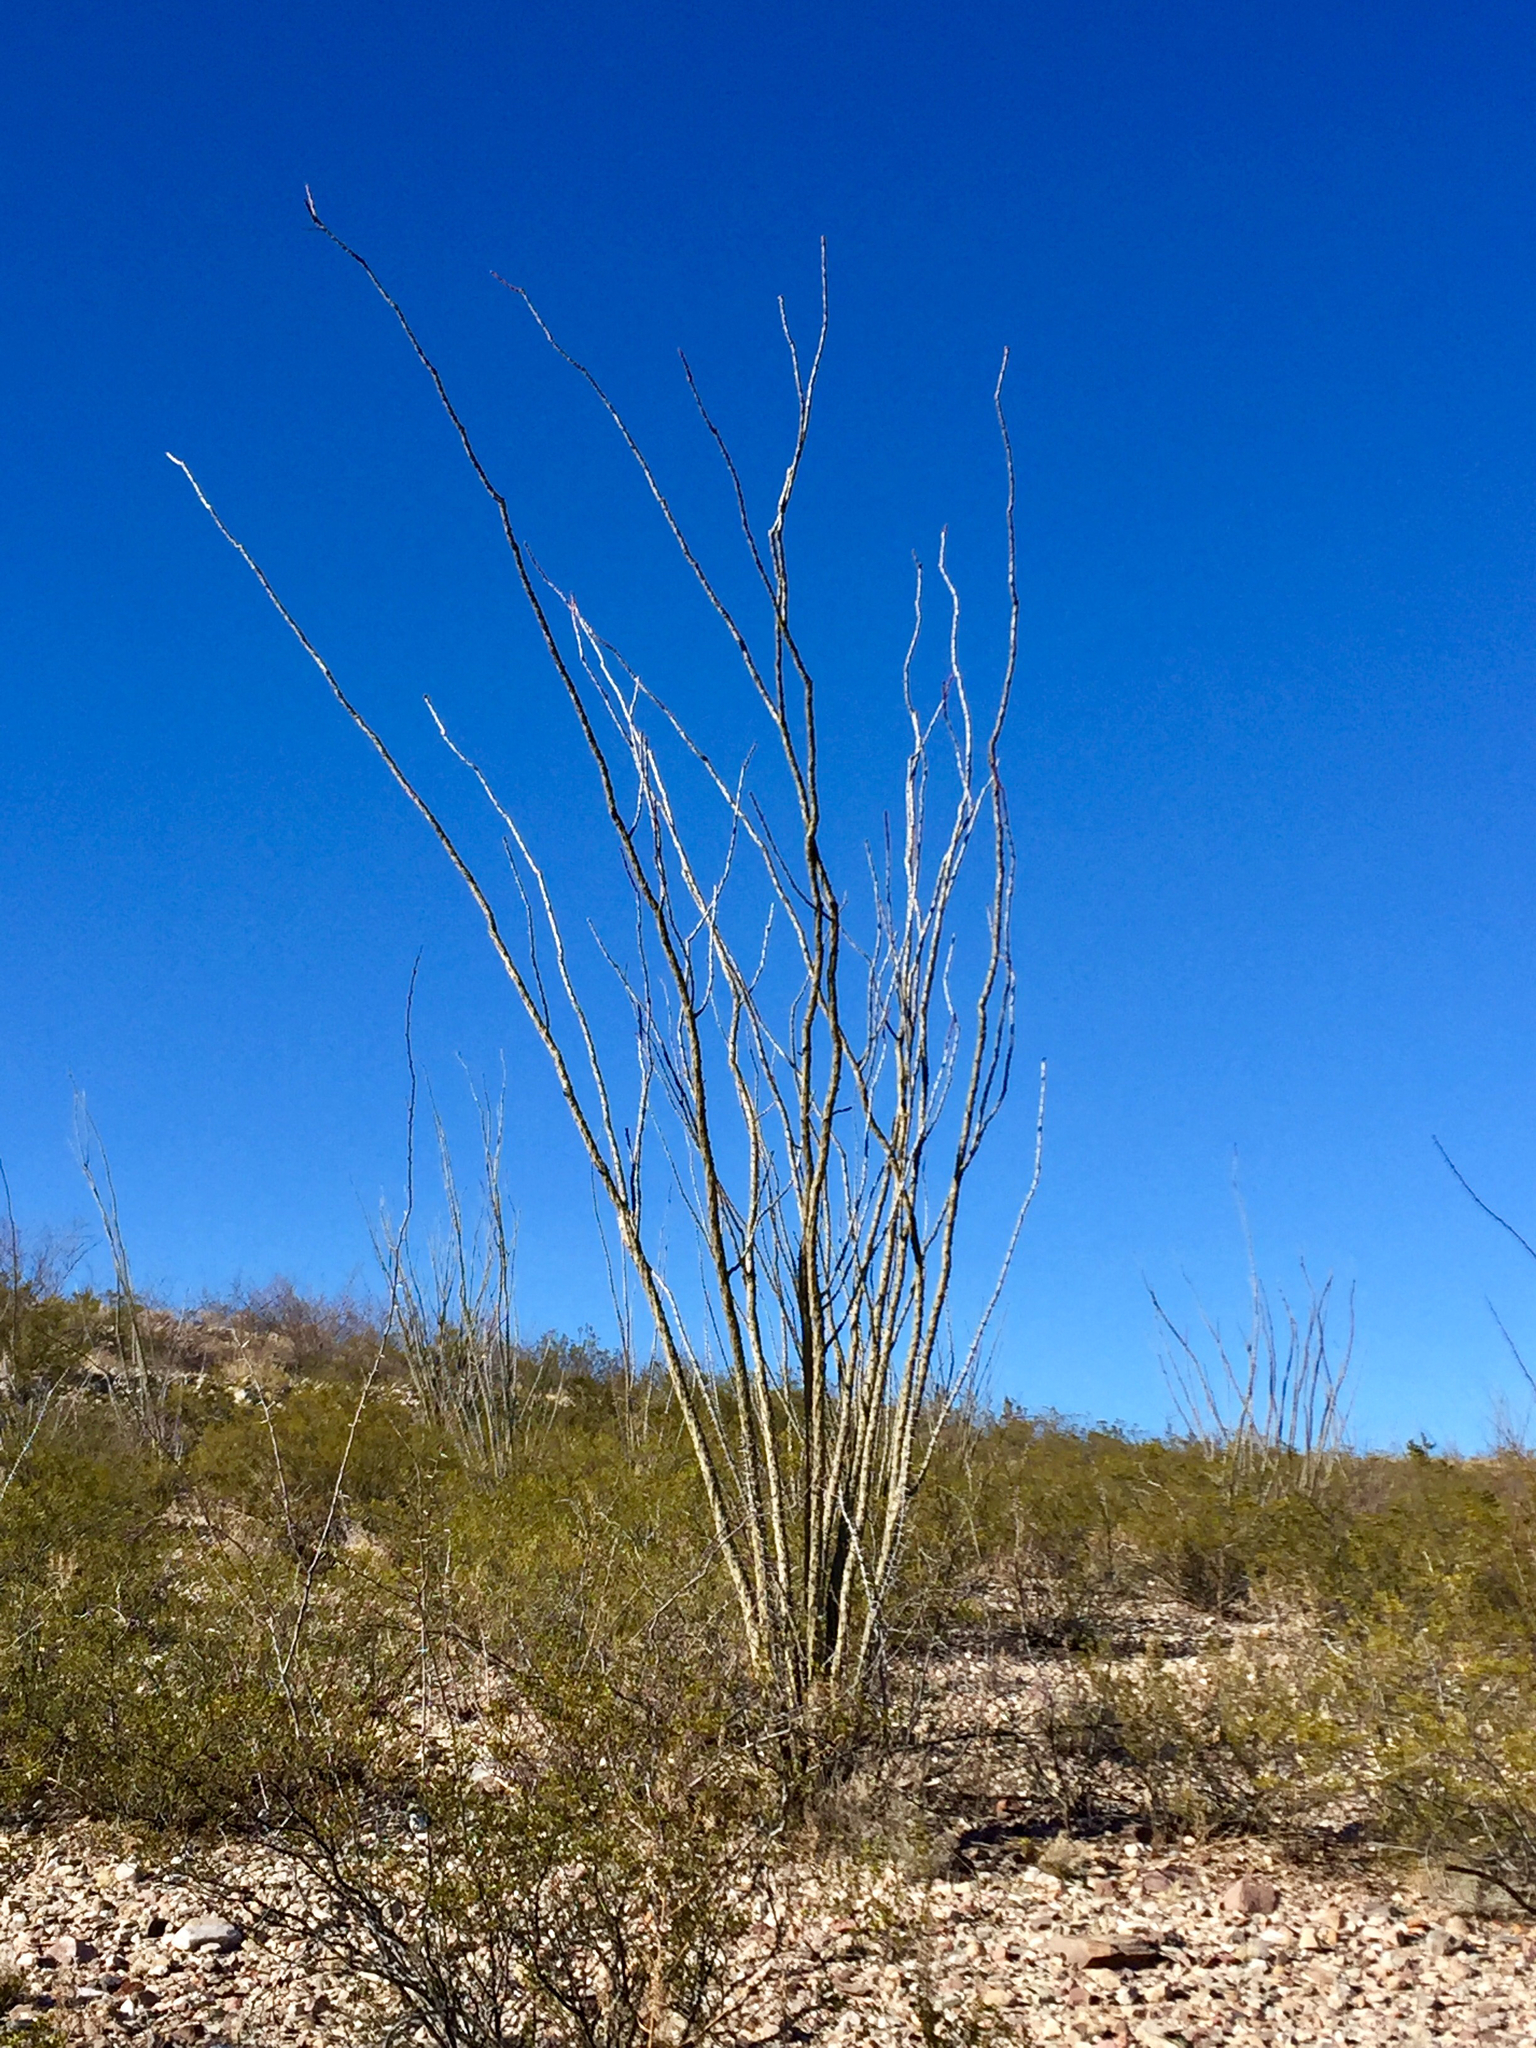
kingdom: Plantae
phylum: Tracheophyta
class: Magnoliopsida
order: Ericales
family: Fouquieriaceae
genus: Fouquieria
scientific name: Fouquieria splendens
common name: Vine-cactus
